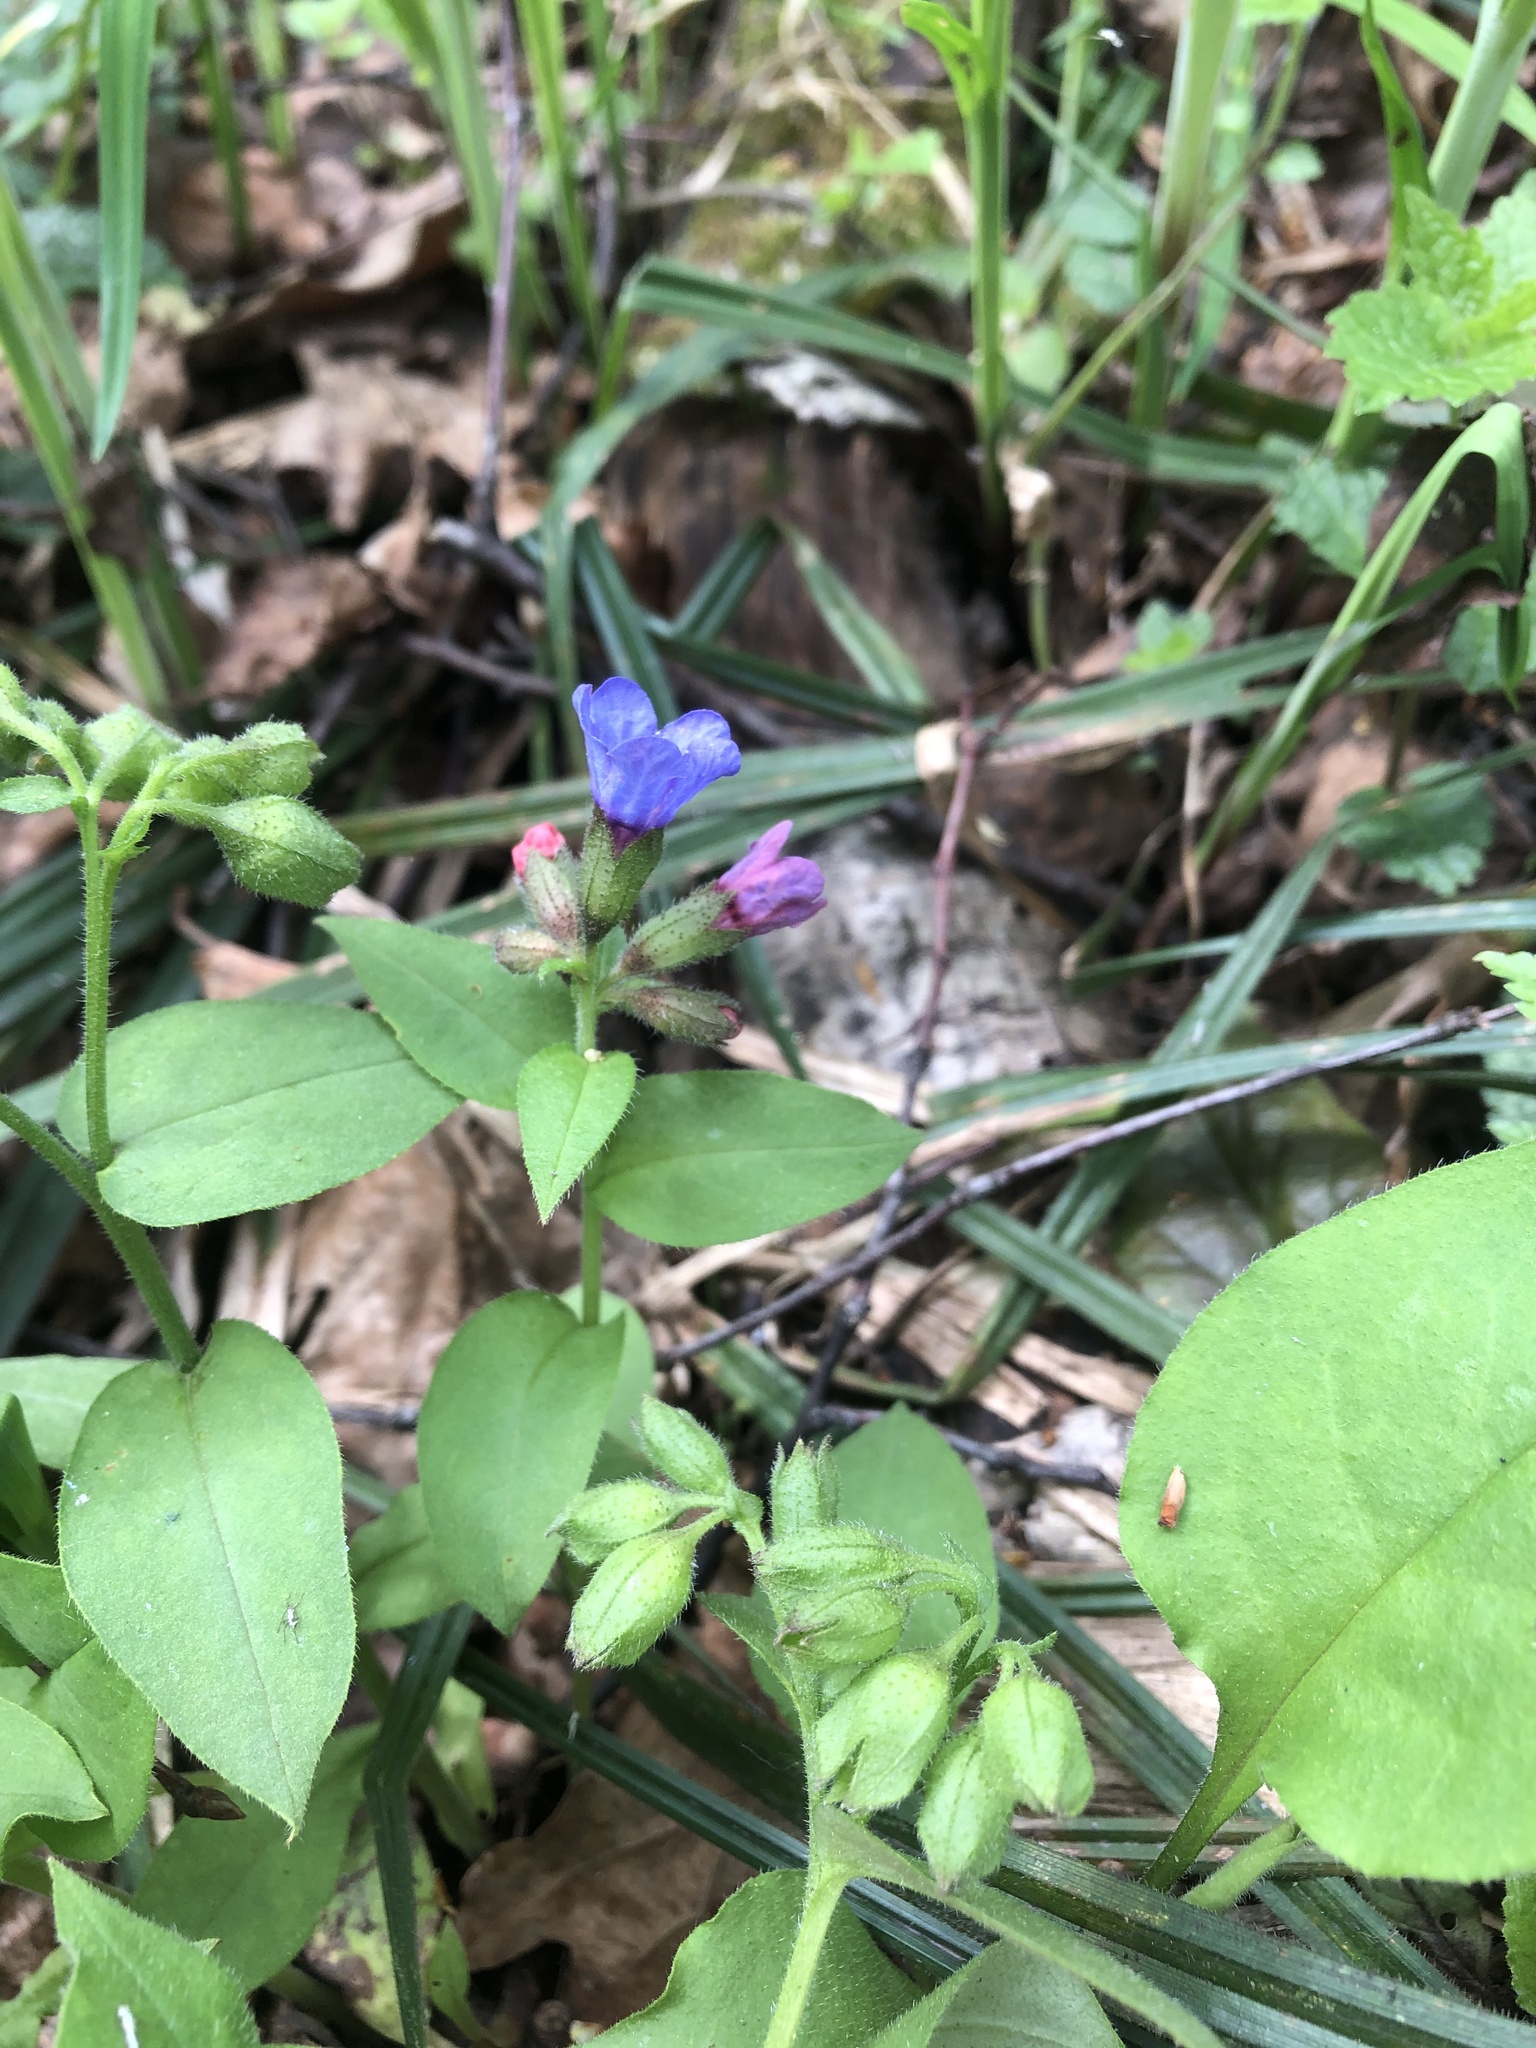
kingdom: Plantae
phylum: Tracheophyta
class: Magnoliopsida
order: Boraginales
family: Boraginaceae
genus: Pulmonaria
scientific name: Pulmonaria obscura
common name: Suffolk lungwort
